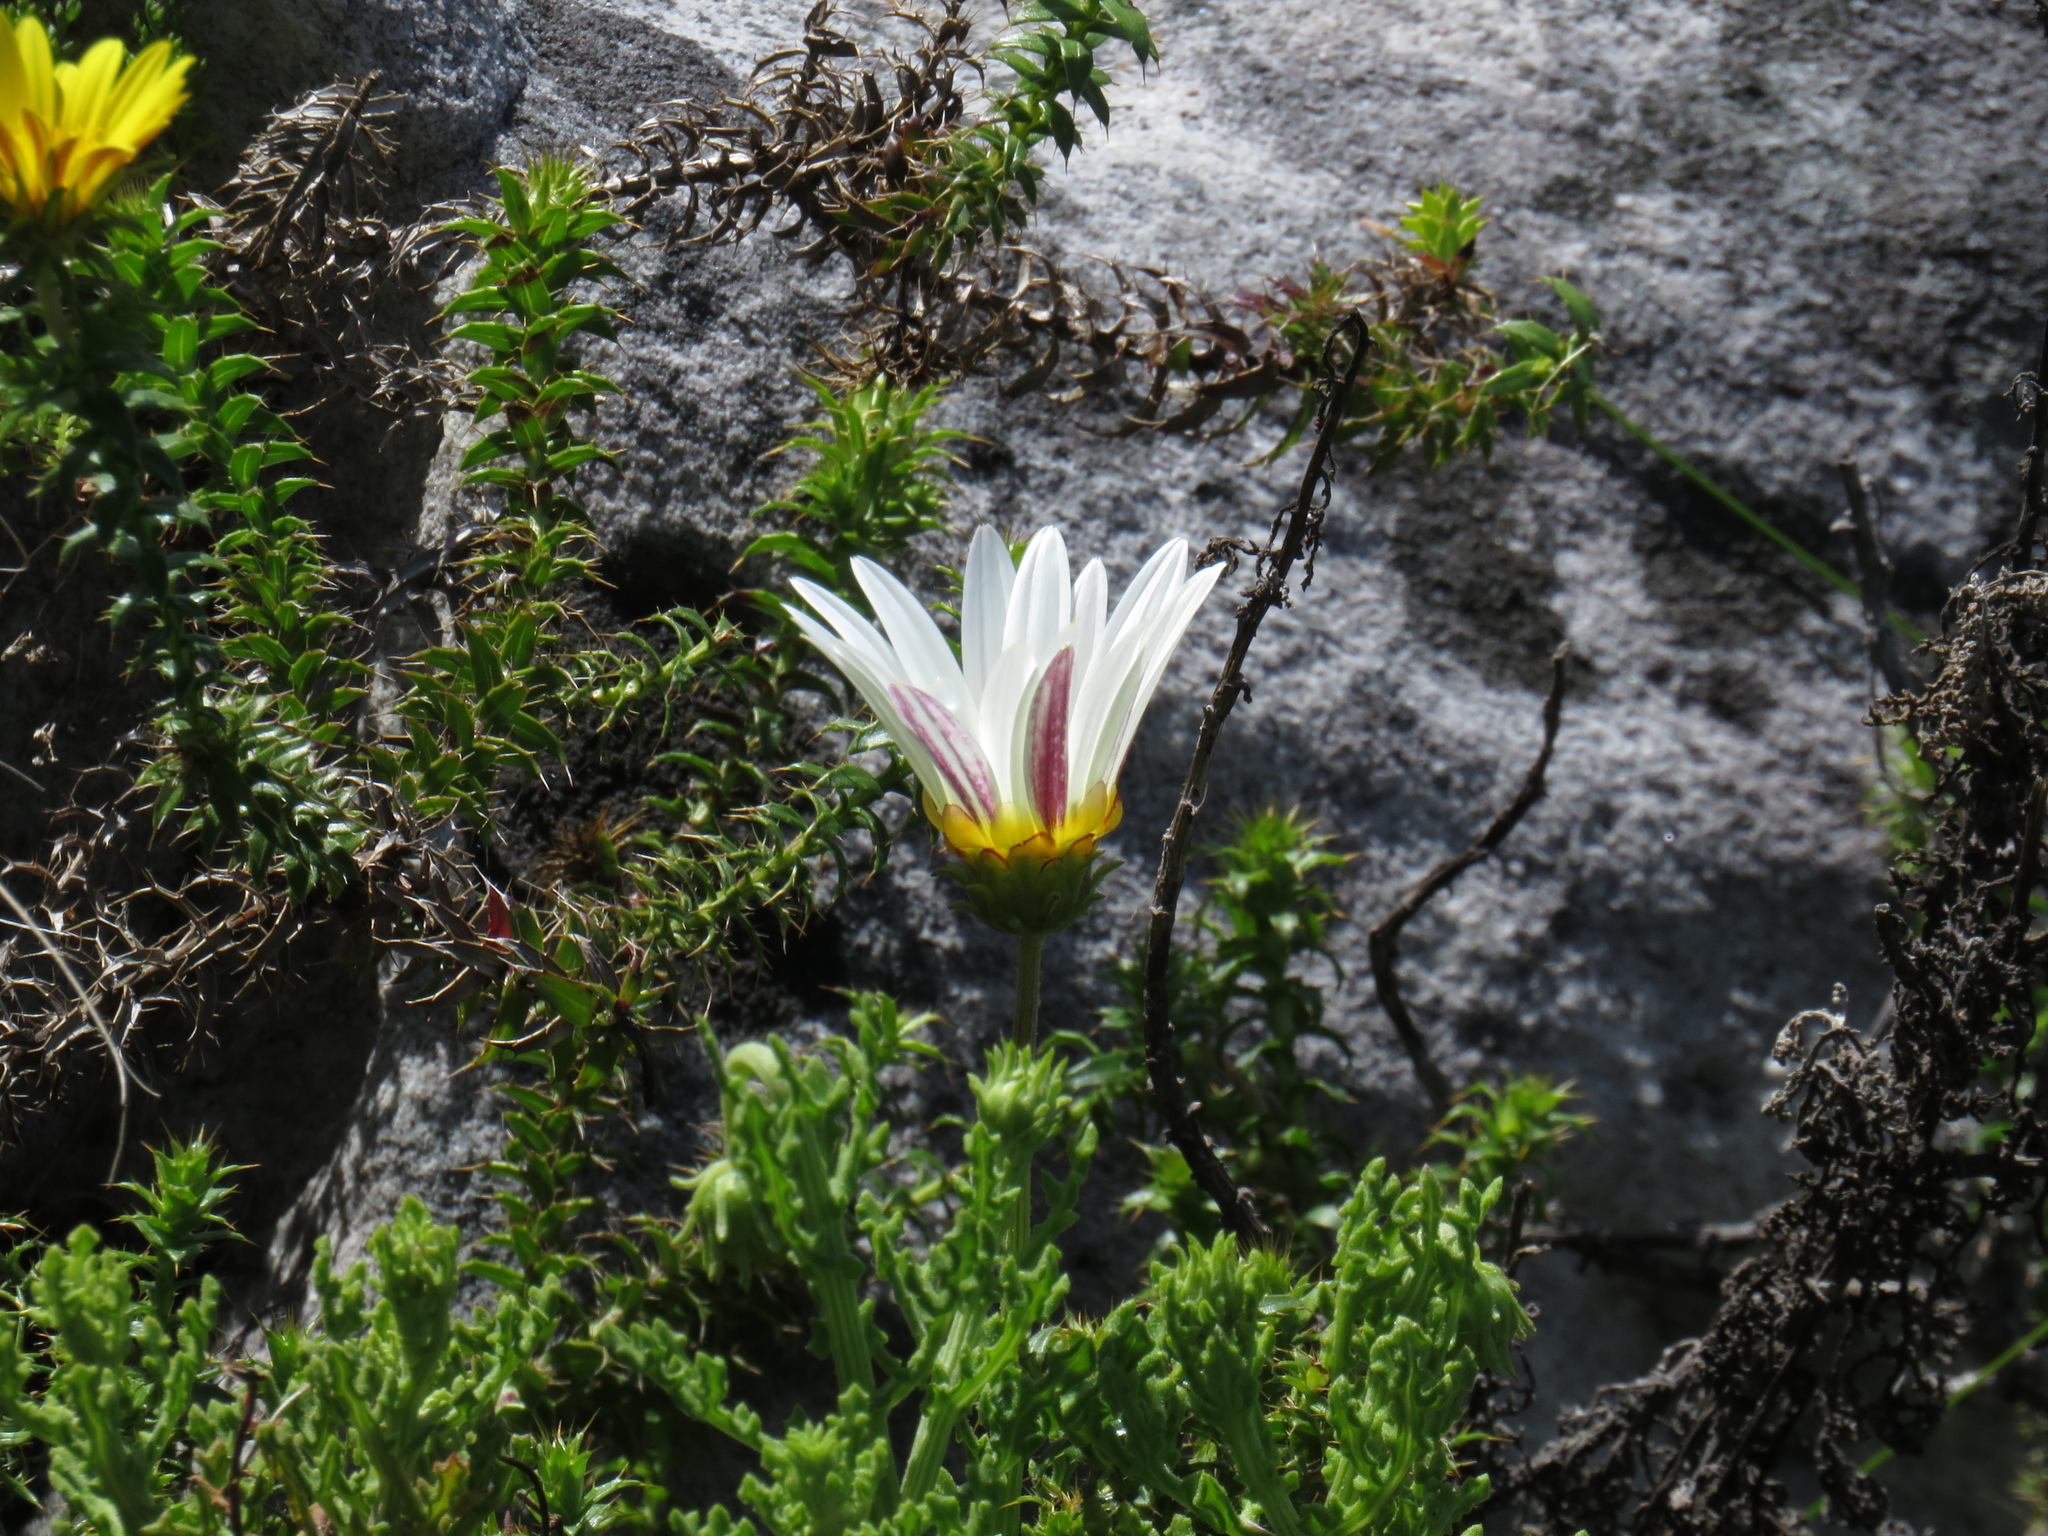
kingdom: Plantae
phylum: Tracheophyta
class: Magnoliopsida
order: Asterales
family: Asteraceae
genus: Arctotis
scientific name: Arctotis aspera
